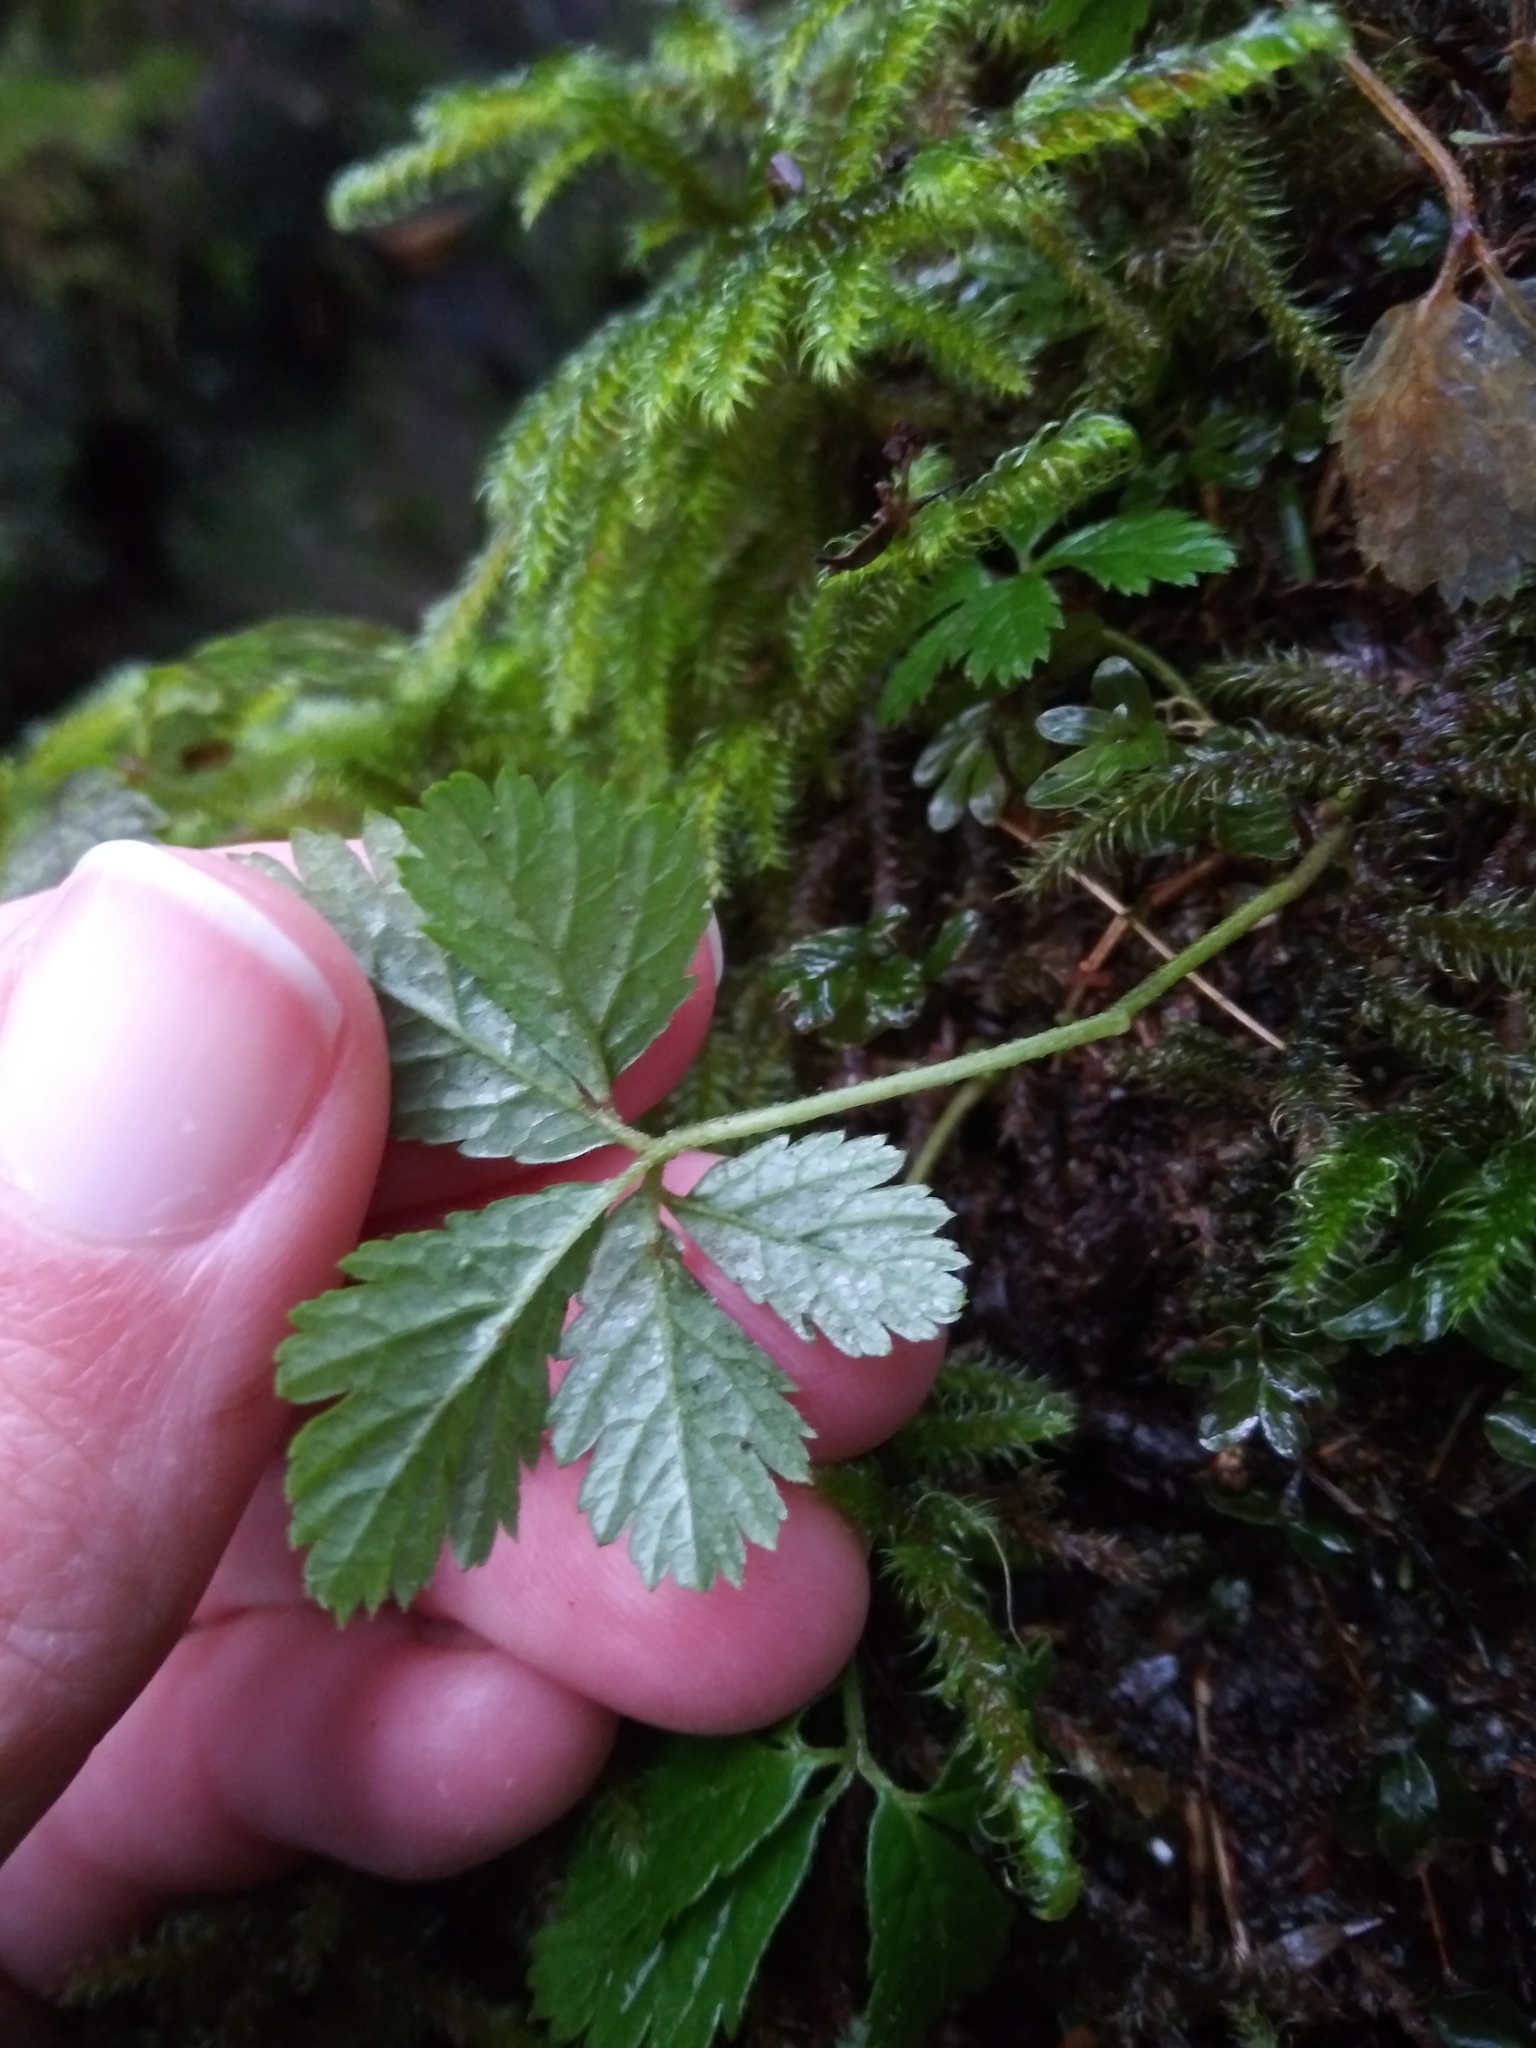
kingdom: Plantae
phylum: Tracheophyta
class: Magnoliopsida
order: Rosales
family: Rosaceae
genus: Rubus
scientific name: Rubus pedatus
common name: Creeping raspberry
